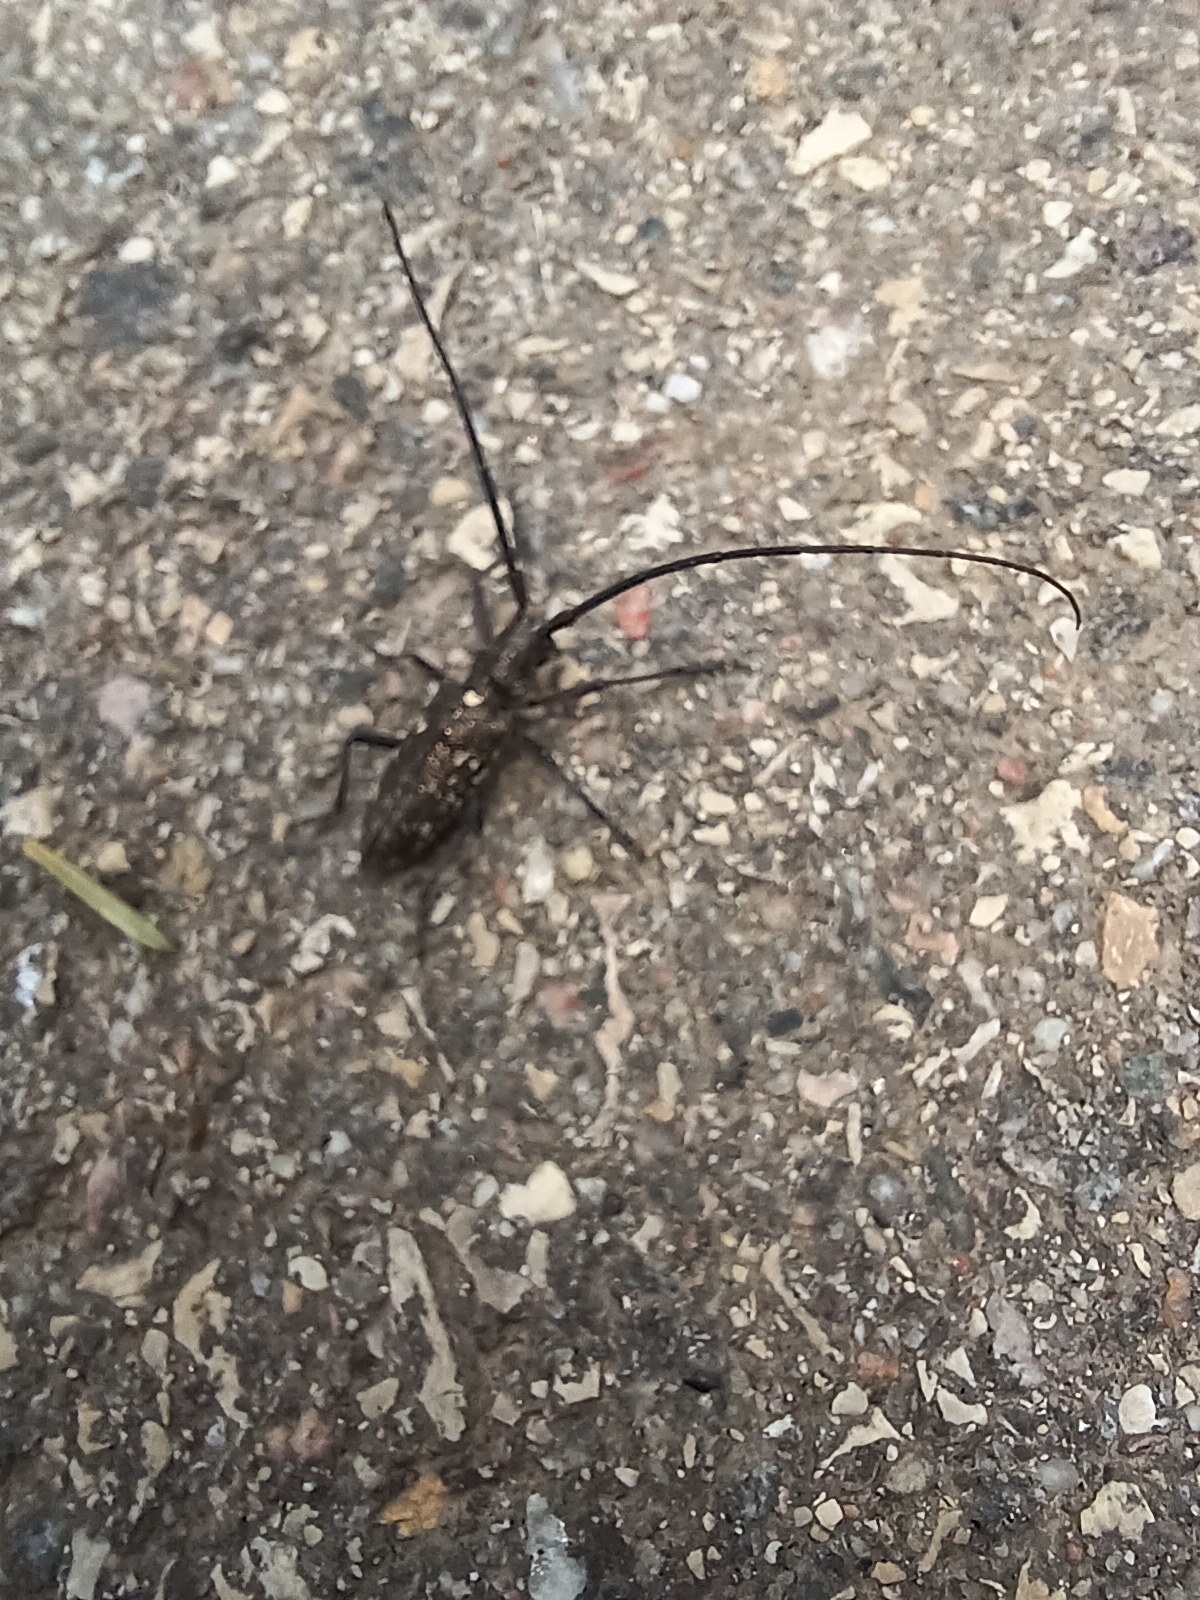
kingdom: Animalia
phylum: Arthropoda
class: Insecta
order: Coleoptera
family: Cerambycidae
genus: Monochamus
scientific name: Monochamus scutellatus
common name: White-spotted sawyer beetle
